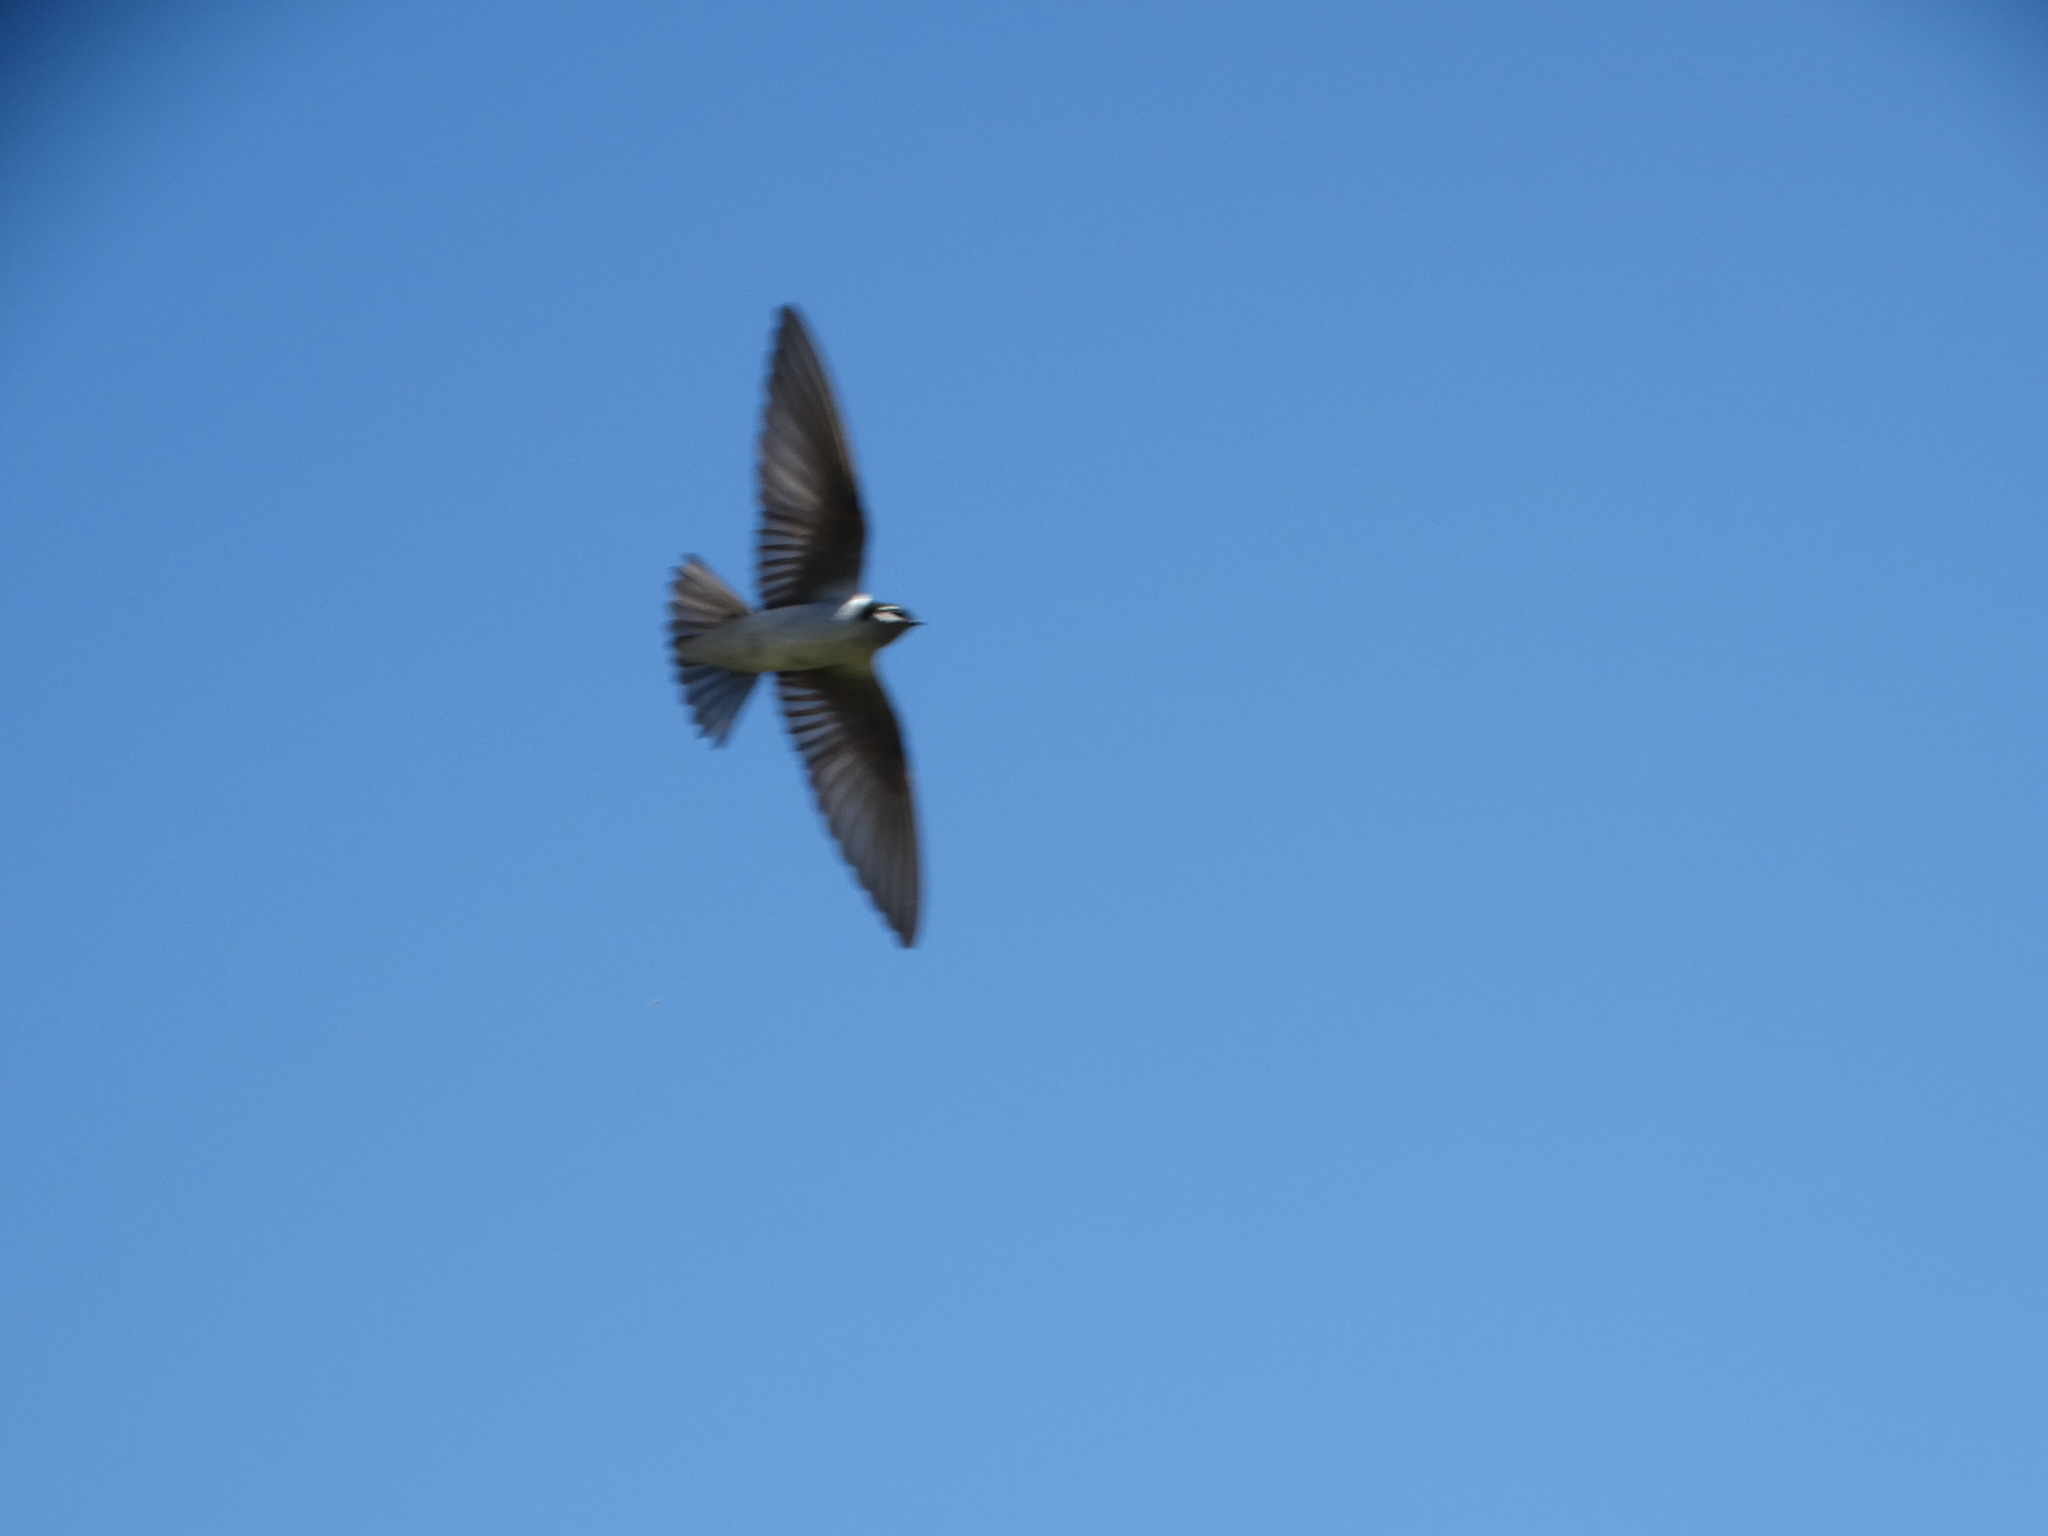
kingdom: Animalia
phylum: Chordata
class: Aves
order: Passeriformes
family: Hirundinidae
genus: Tachycineta
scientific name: Tachycineta thalassina
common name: Violet-green swallow
